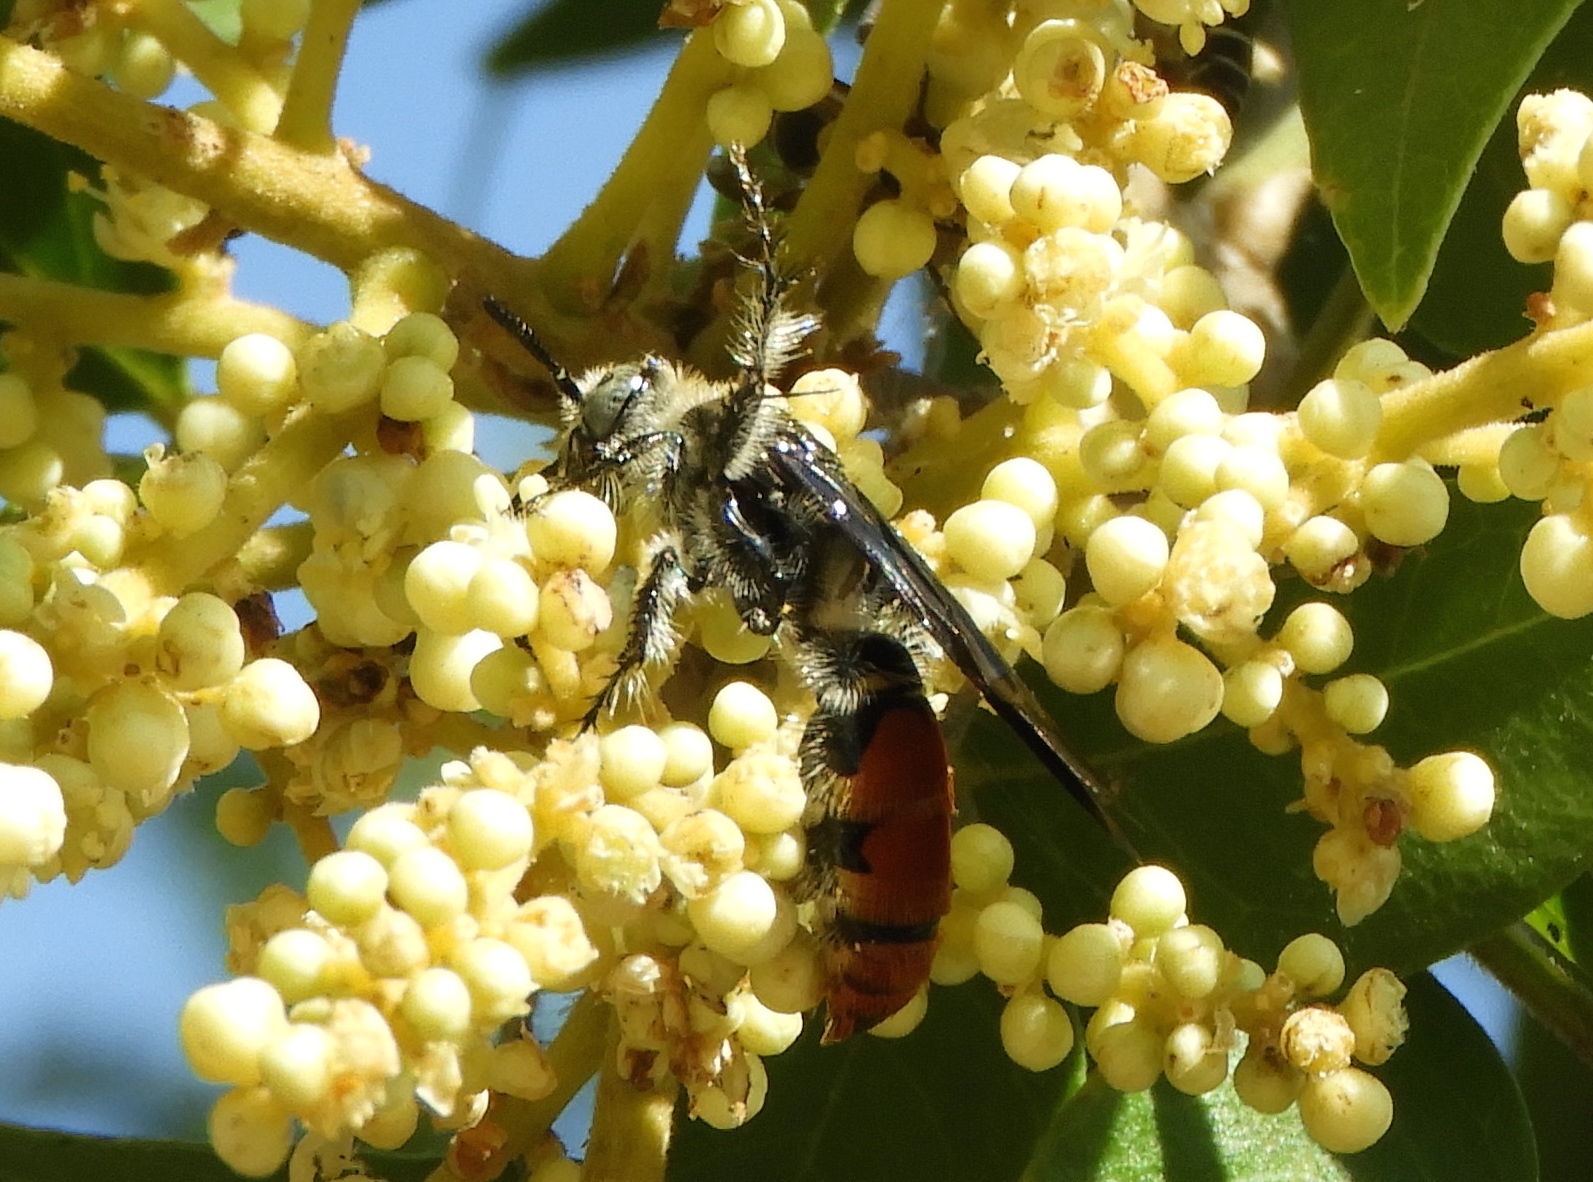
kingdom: Animalia
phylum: Arthropoda
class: Insecta
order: Hymenoptera
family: Scoliidae
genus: Dielis
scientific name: Dielis tolteca
